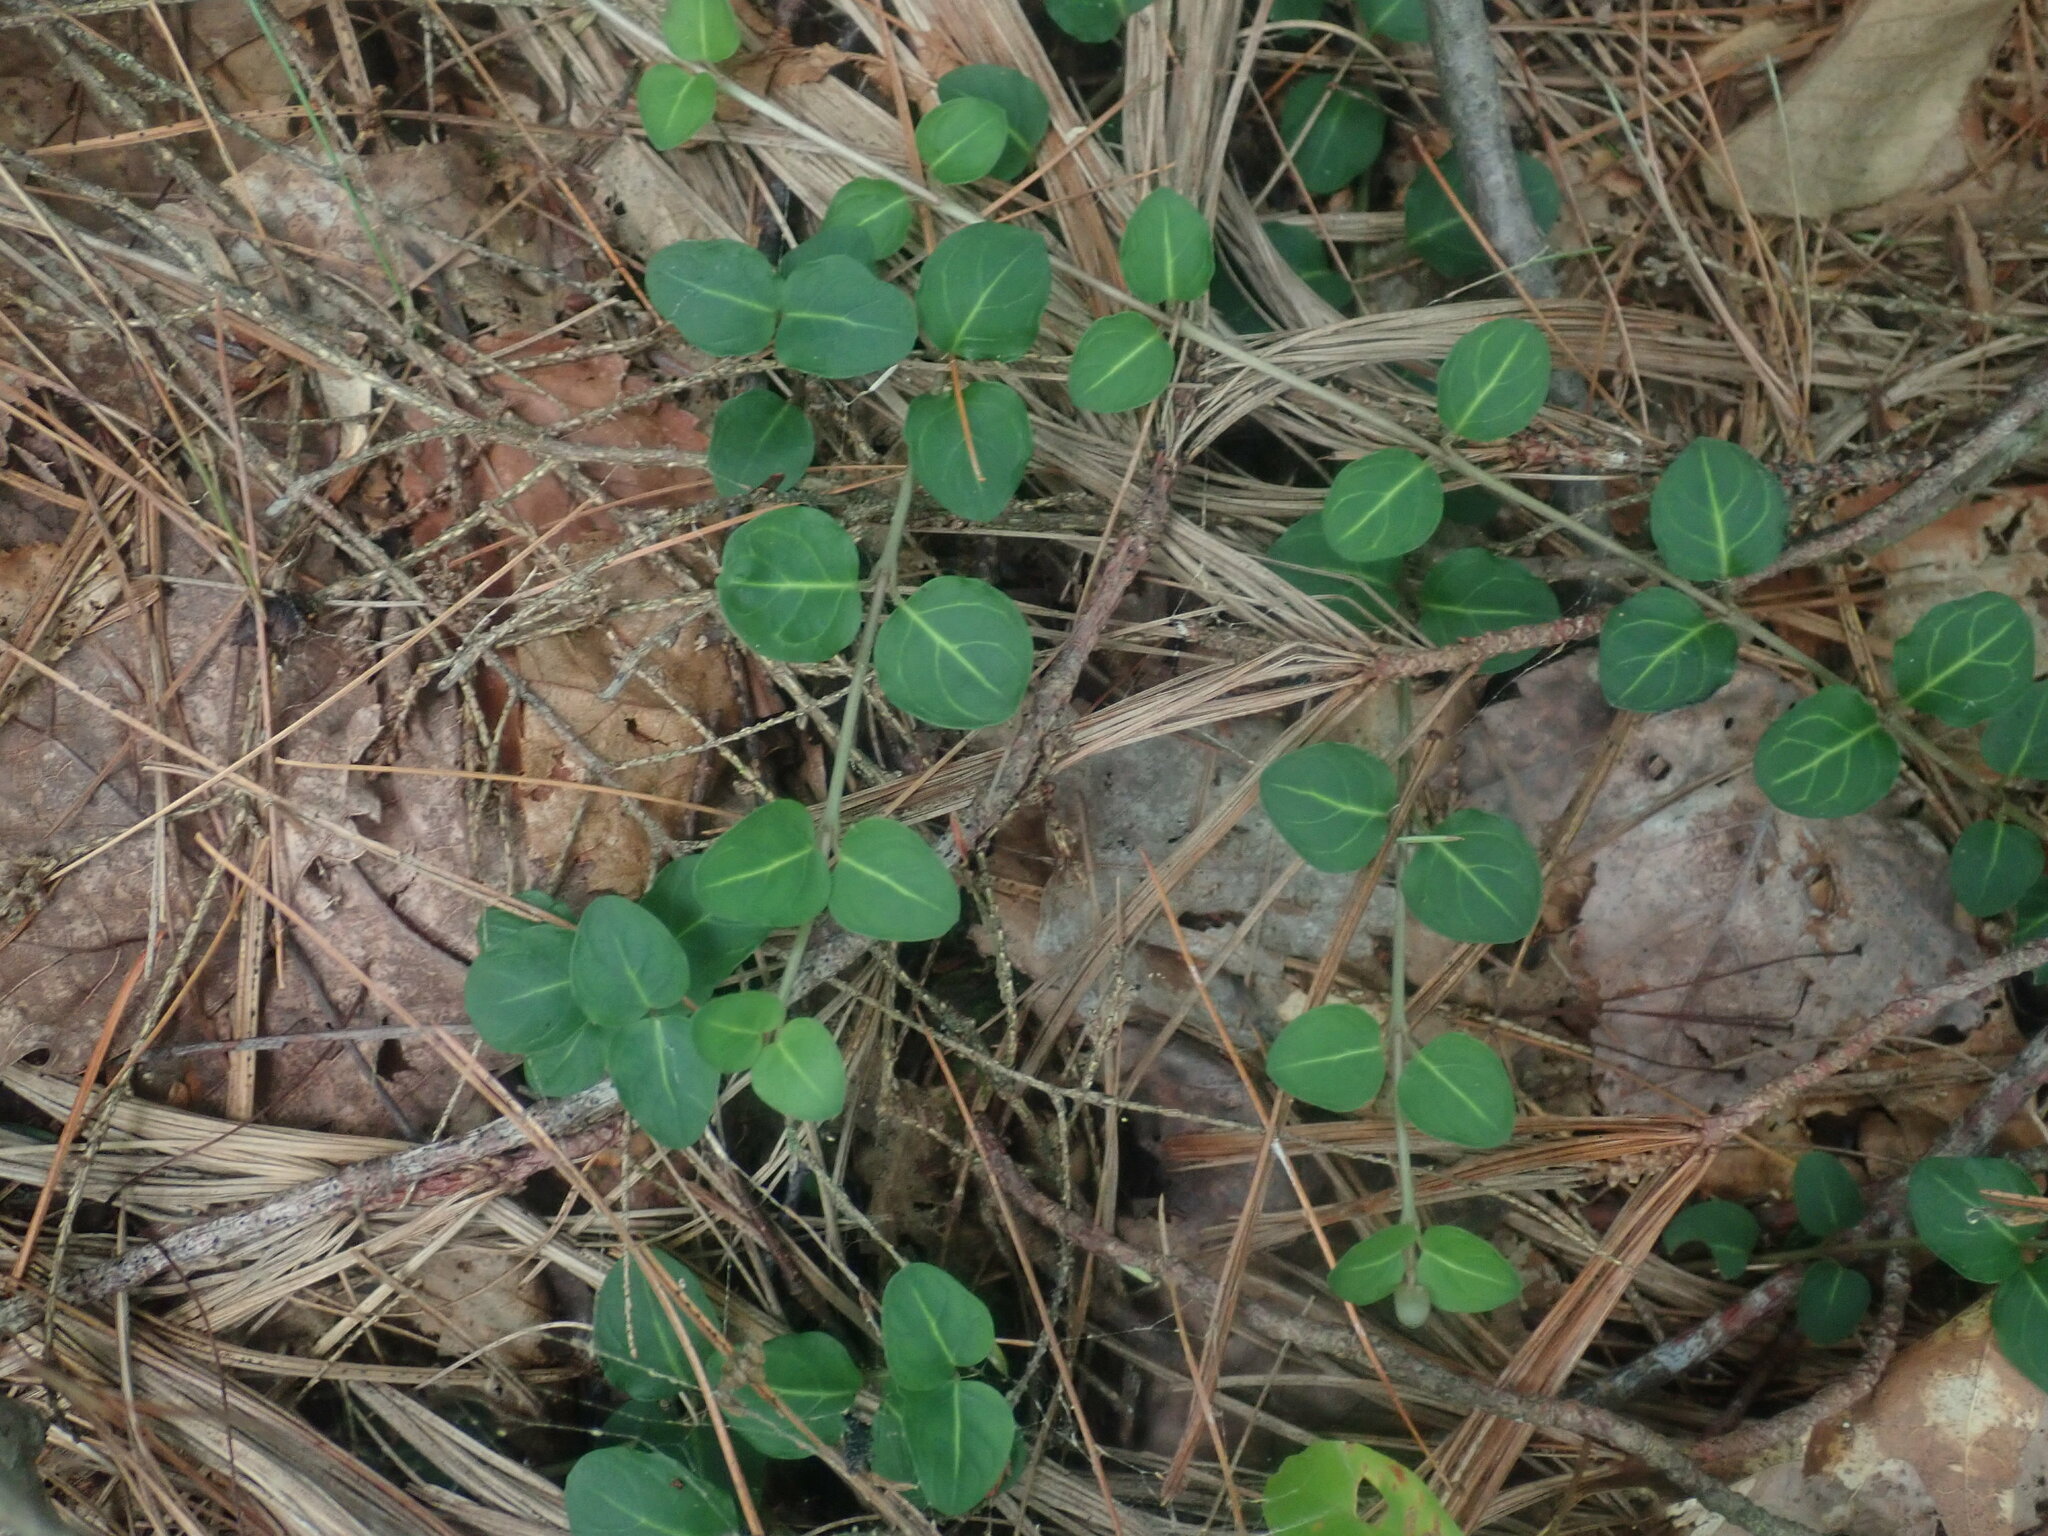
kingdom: Plantae
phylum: Tracheophyta
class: Magnoliopsida
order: Gentianales
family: Rubiaceae
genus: Mitchella
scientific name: Mitchella repens
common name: Partridge-berry
